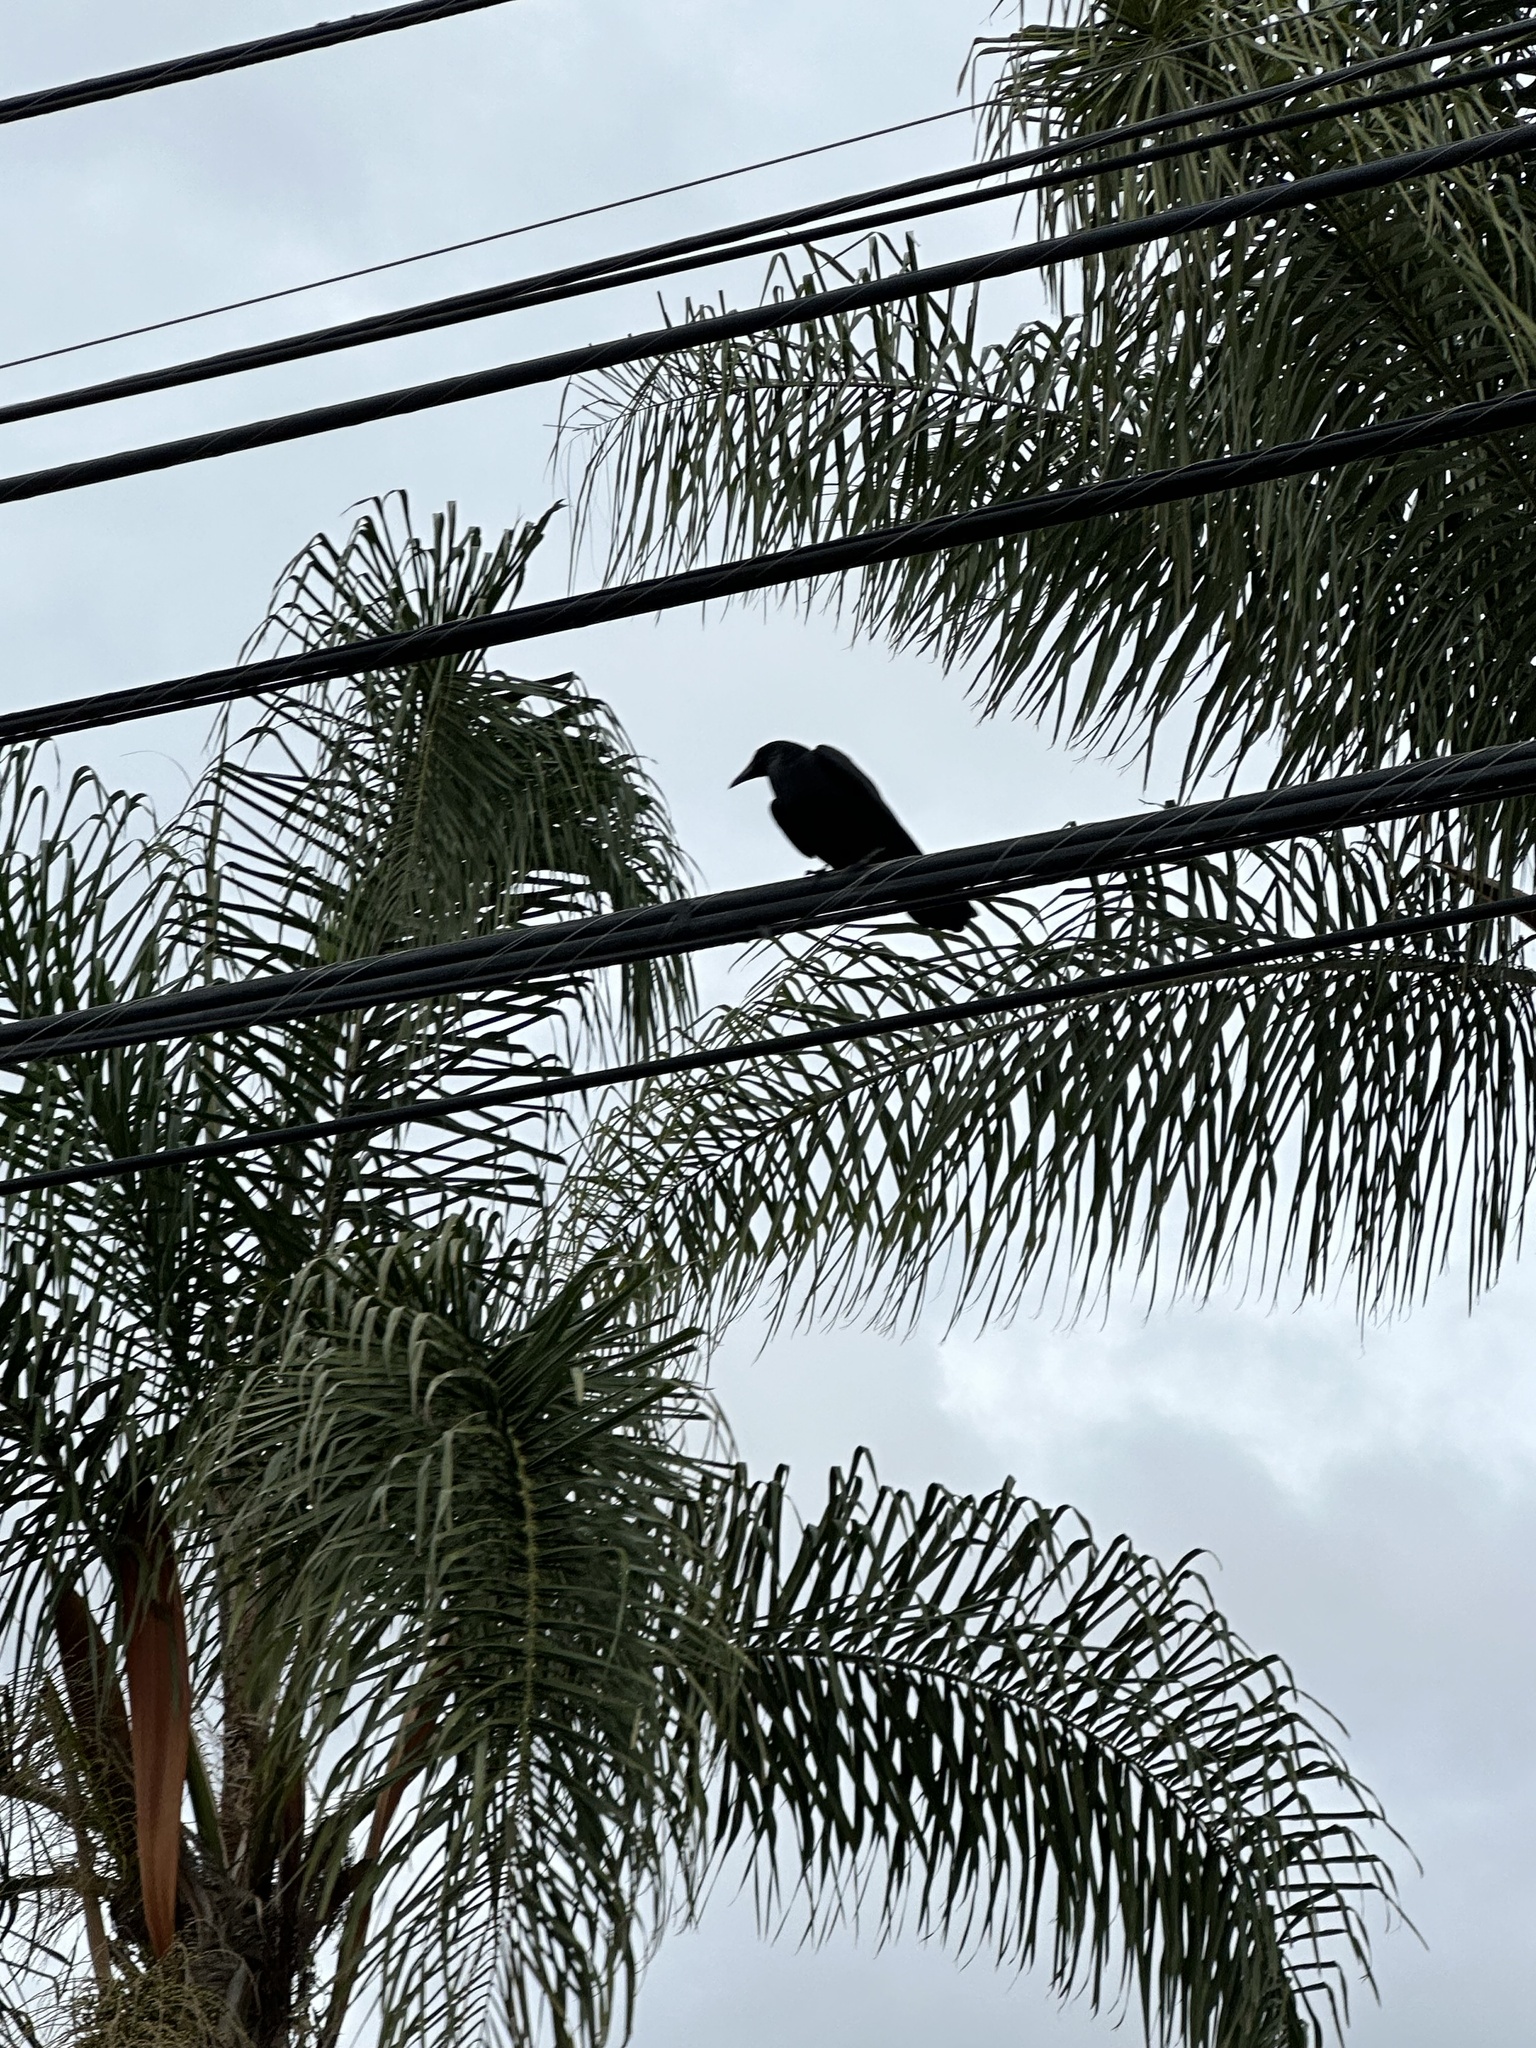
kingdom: Animalia
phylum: Chordata
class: Aves
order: Passeriformes
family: Corvidae
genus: Corvus
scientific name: Corvus brachyrhynchos
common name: American crow
